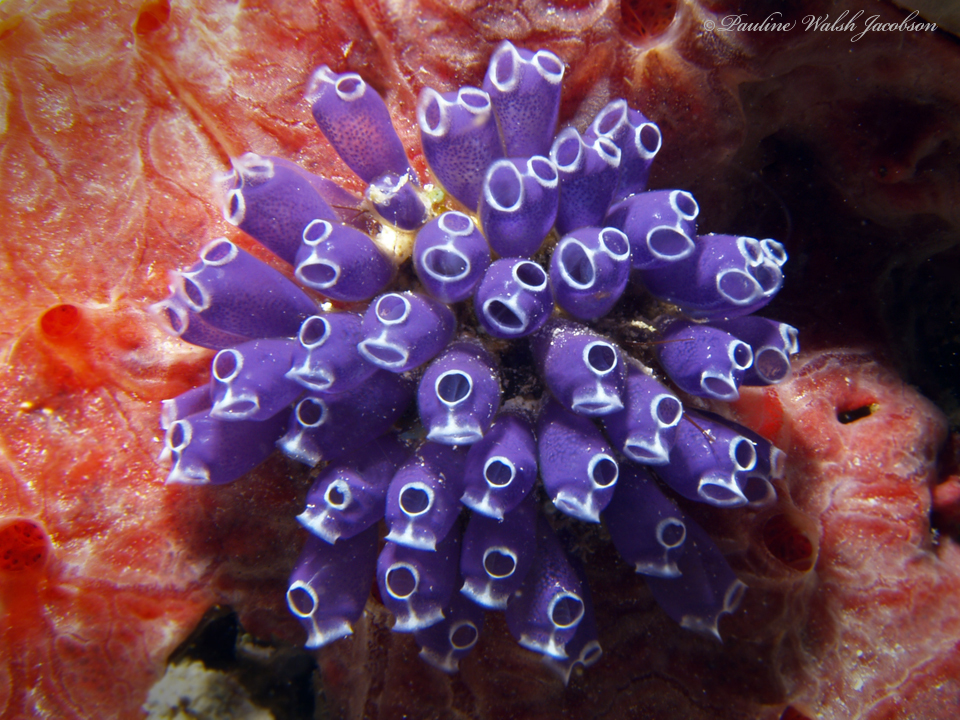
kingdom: Animalia
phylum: Chordata
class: Ascidiacea
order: Aplousobranchia
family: Clavelinidae
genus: Clavelina
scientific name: Clavelina puertosecensis
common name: Blue bell tunicate
